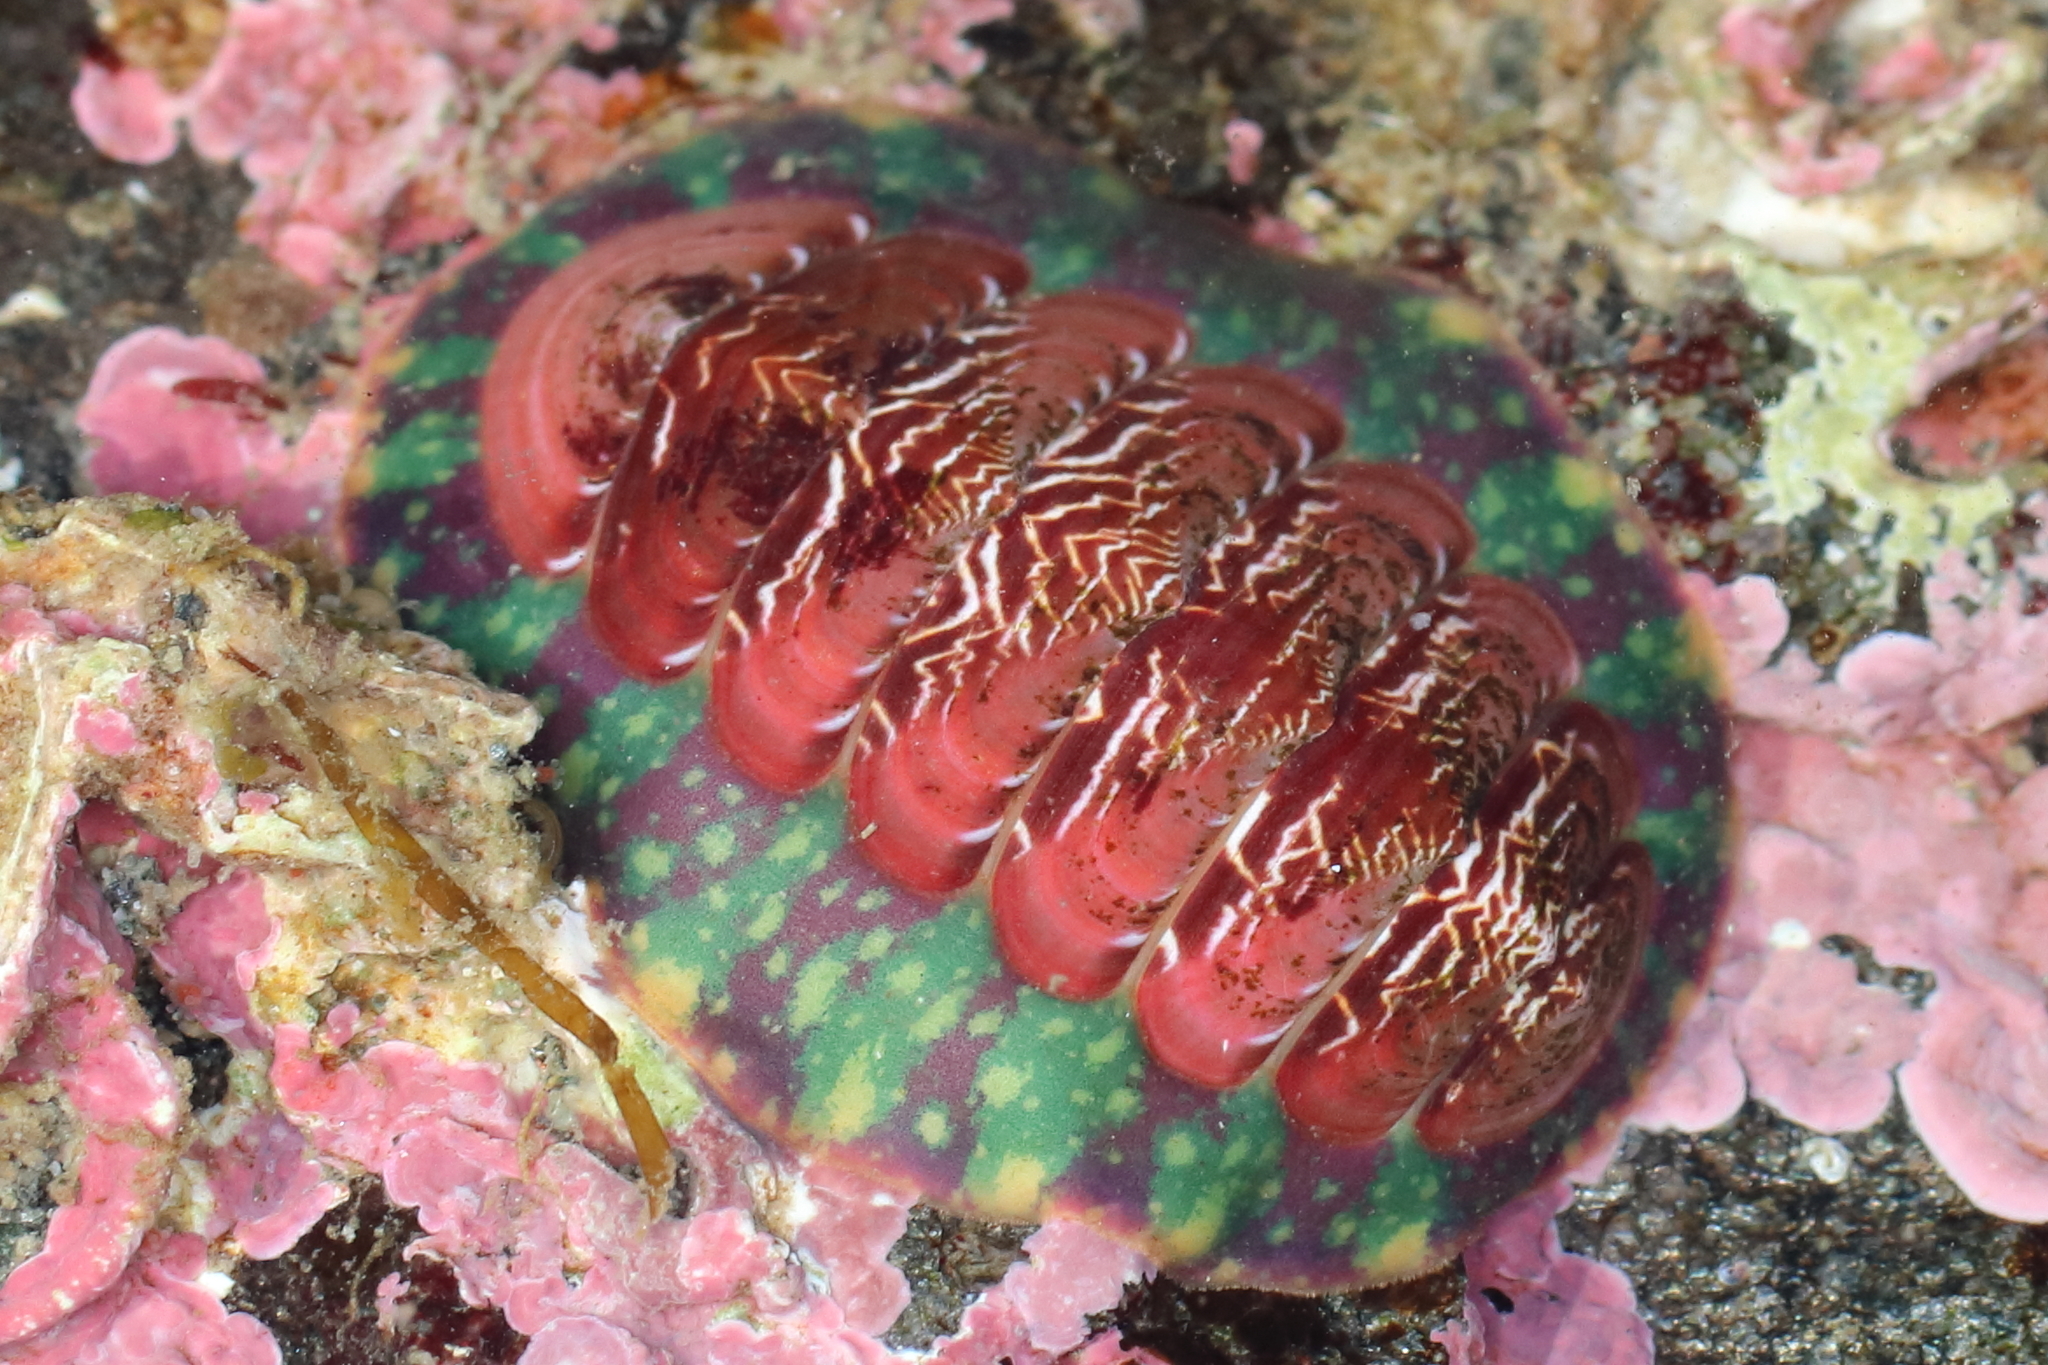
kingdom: Animalia
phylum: Mollusca
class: Polyplacophora
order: Chitonida
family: Tonicellidae
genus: Tonicella
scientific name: Tonicella insignis
